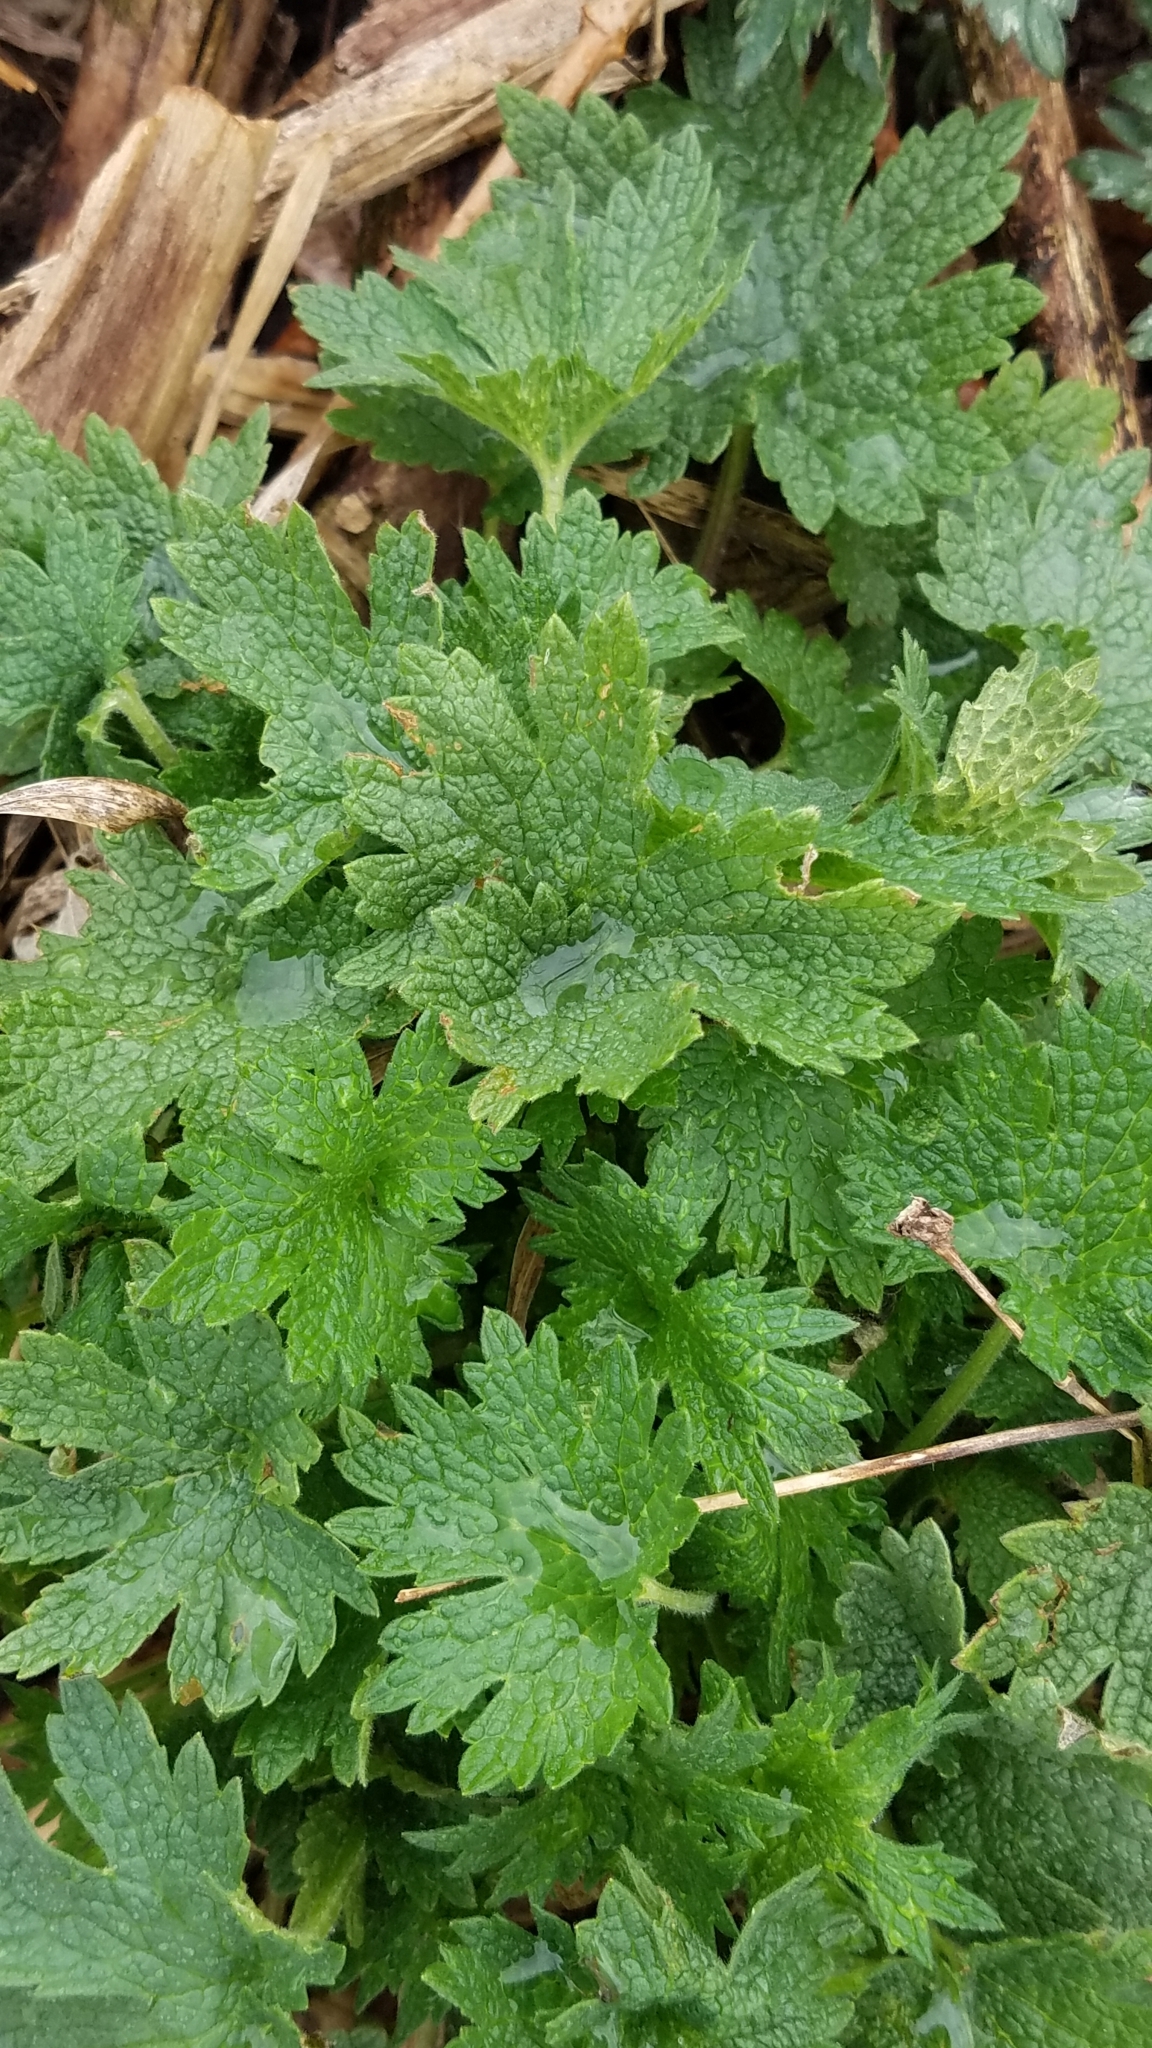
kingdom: Plantae
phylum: Tracheophyta
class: Magnoliopsida
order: Lamiales
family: Lamiaceae
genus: Leonurus
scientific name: Leonurus cardiaca
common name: Motherwort
